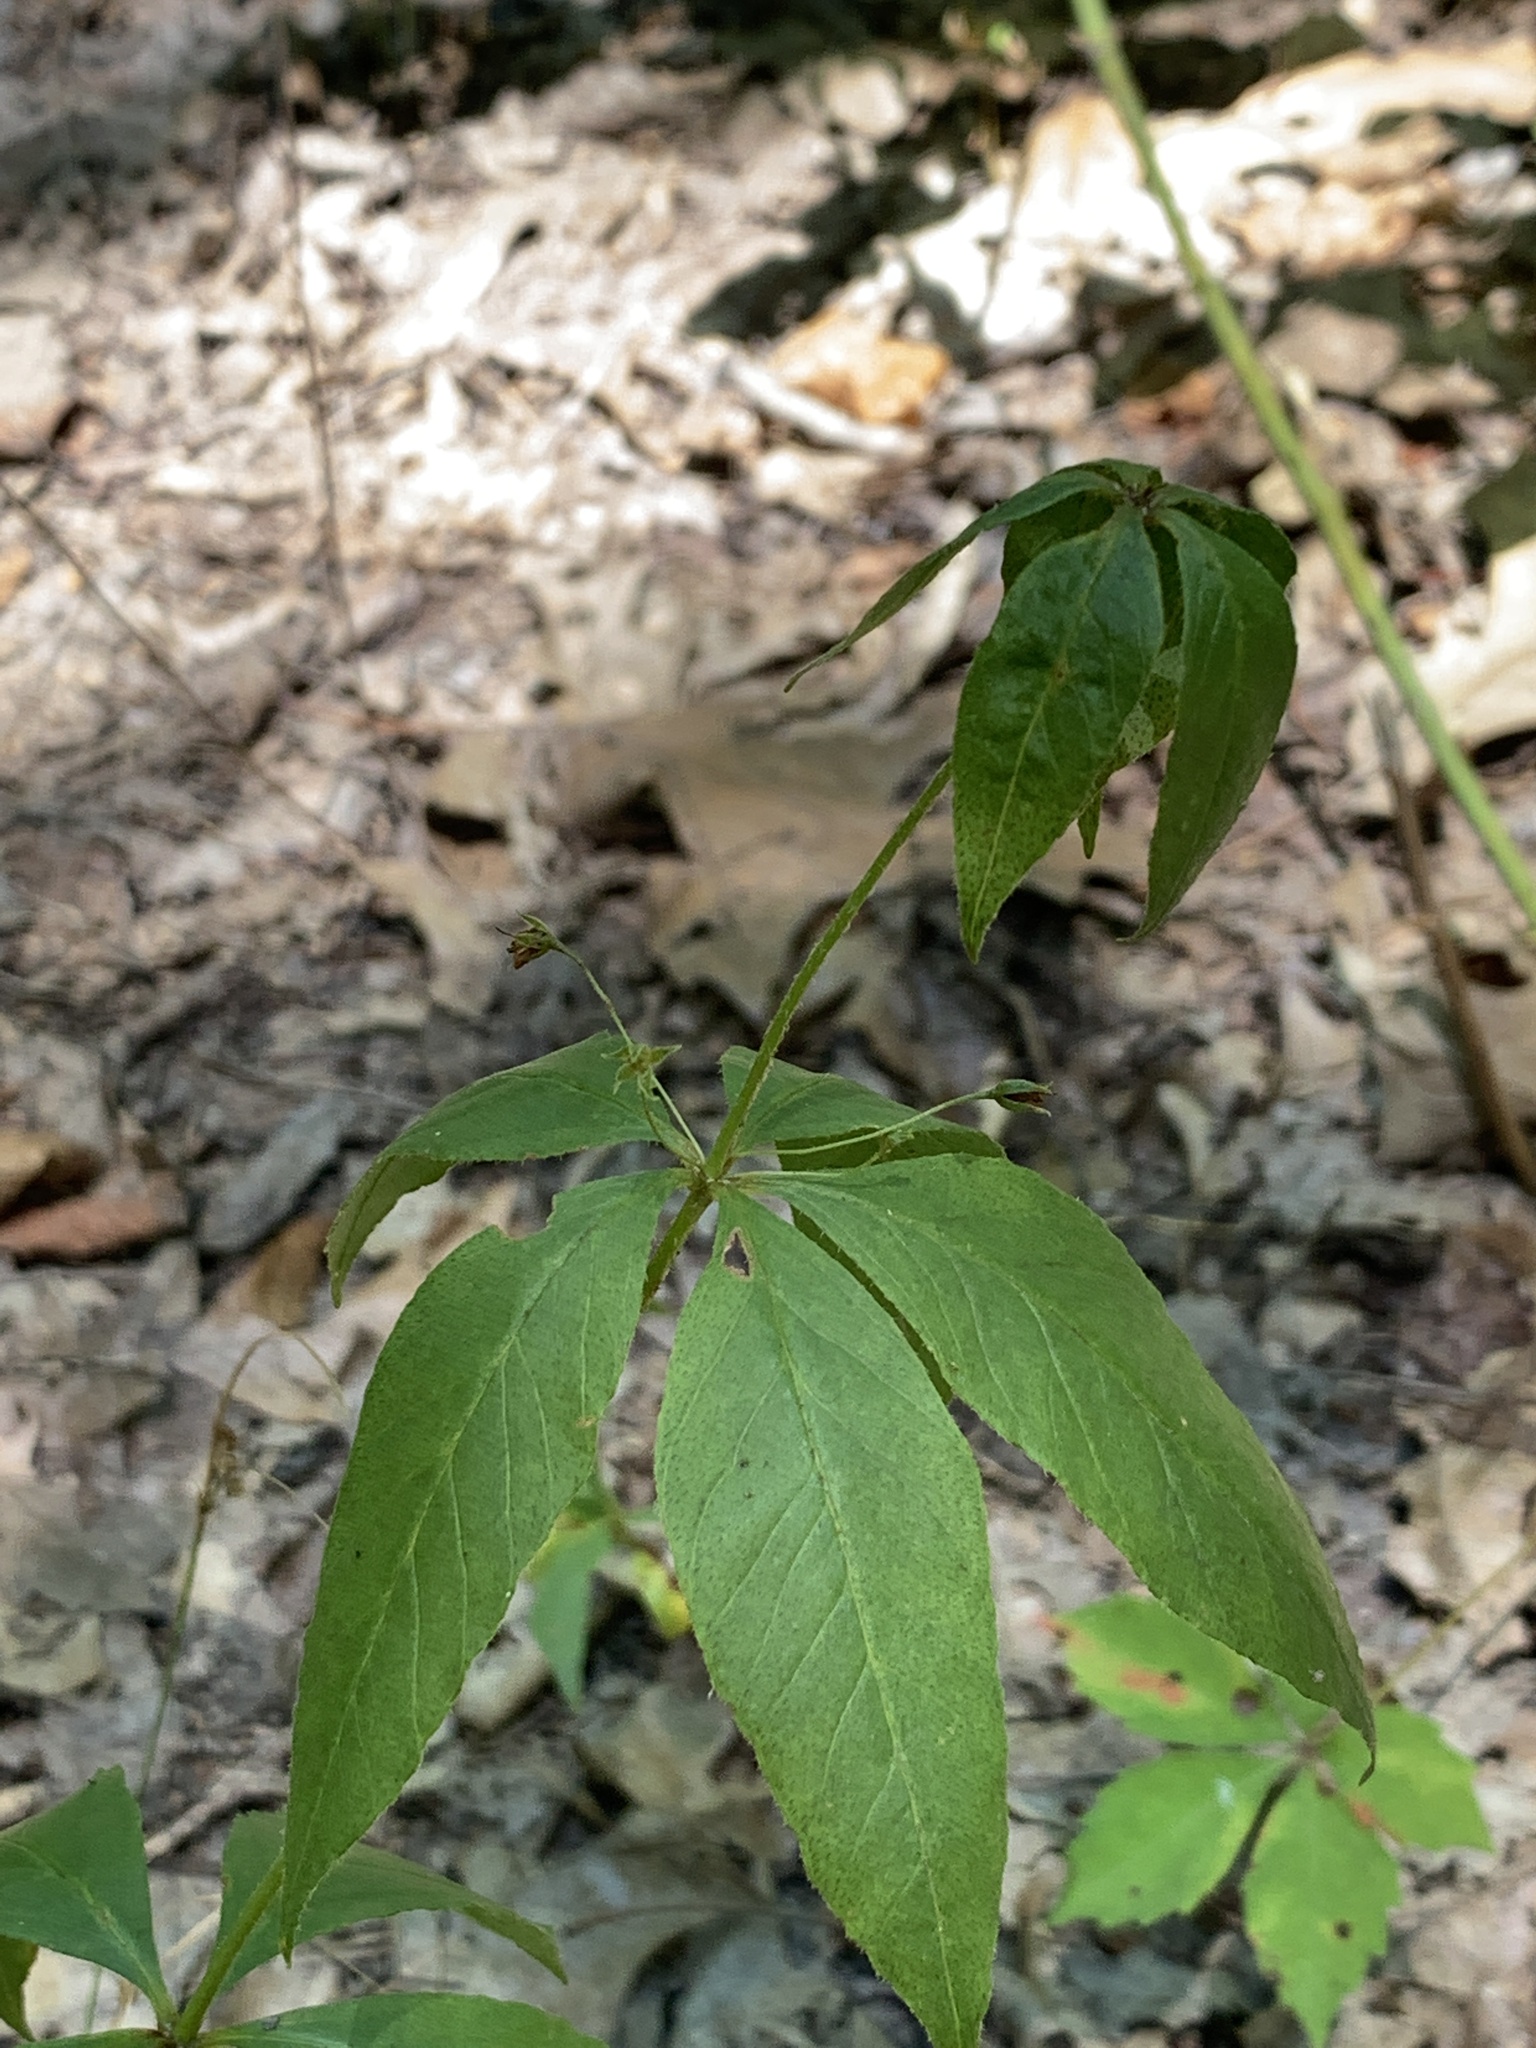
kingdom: Plantae
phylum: Tracheophyta
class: Magnoliopsida
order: Ericales
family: Primulaceae
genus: Lysimachia
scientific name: Lysimachia quadrifolia
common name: Whorled loosestrife
